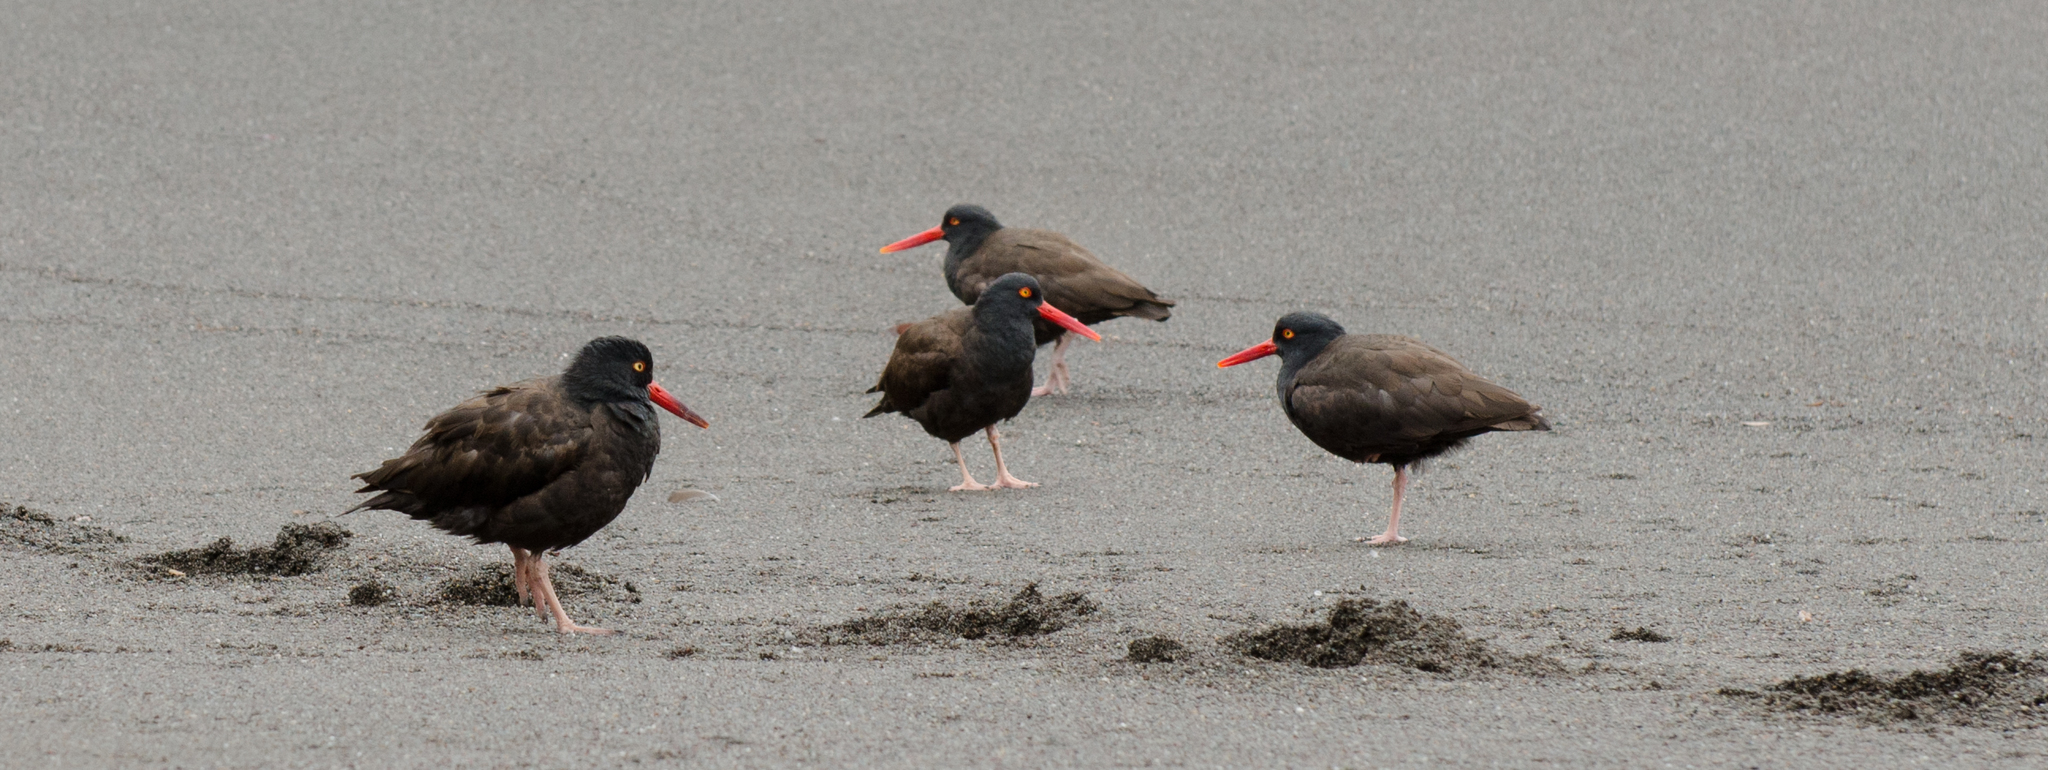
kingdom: Animalia
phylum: Chordata
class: Aves
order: Charadriiformes
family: Haematopodidae
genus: Haematopus
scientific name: Haematopus bachmani
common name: Black oystercatcher
